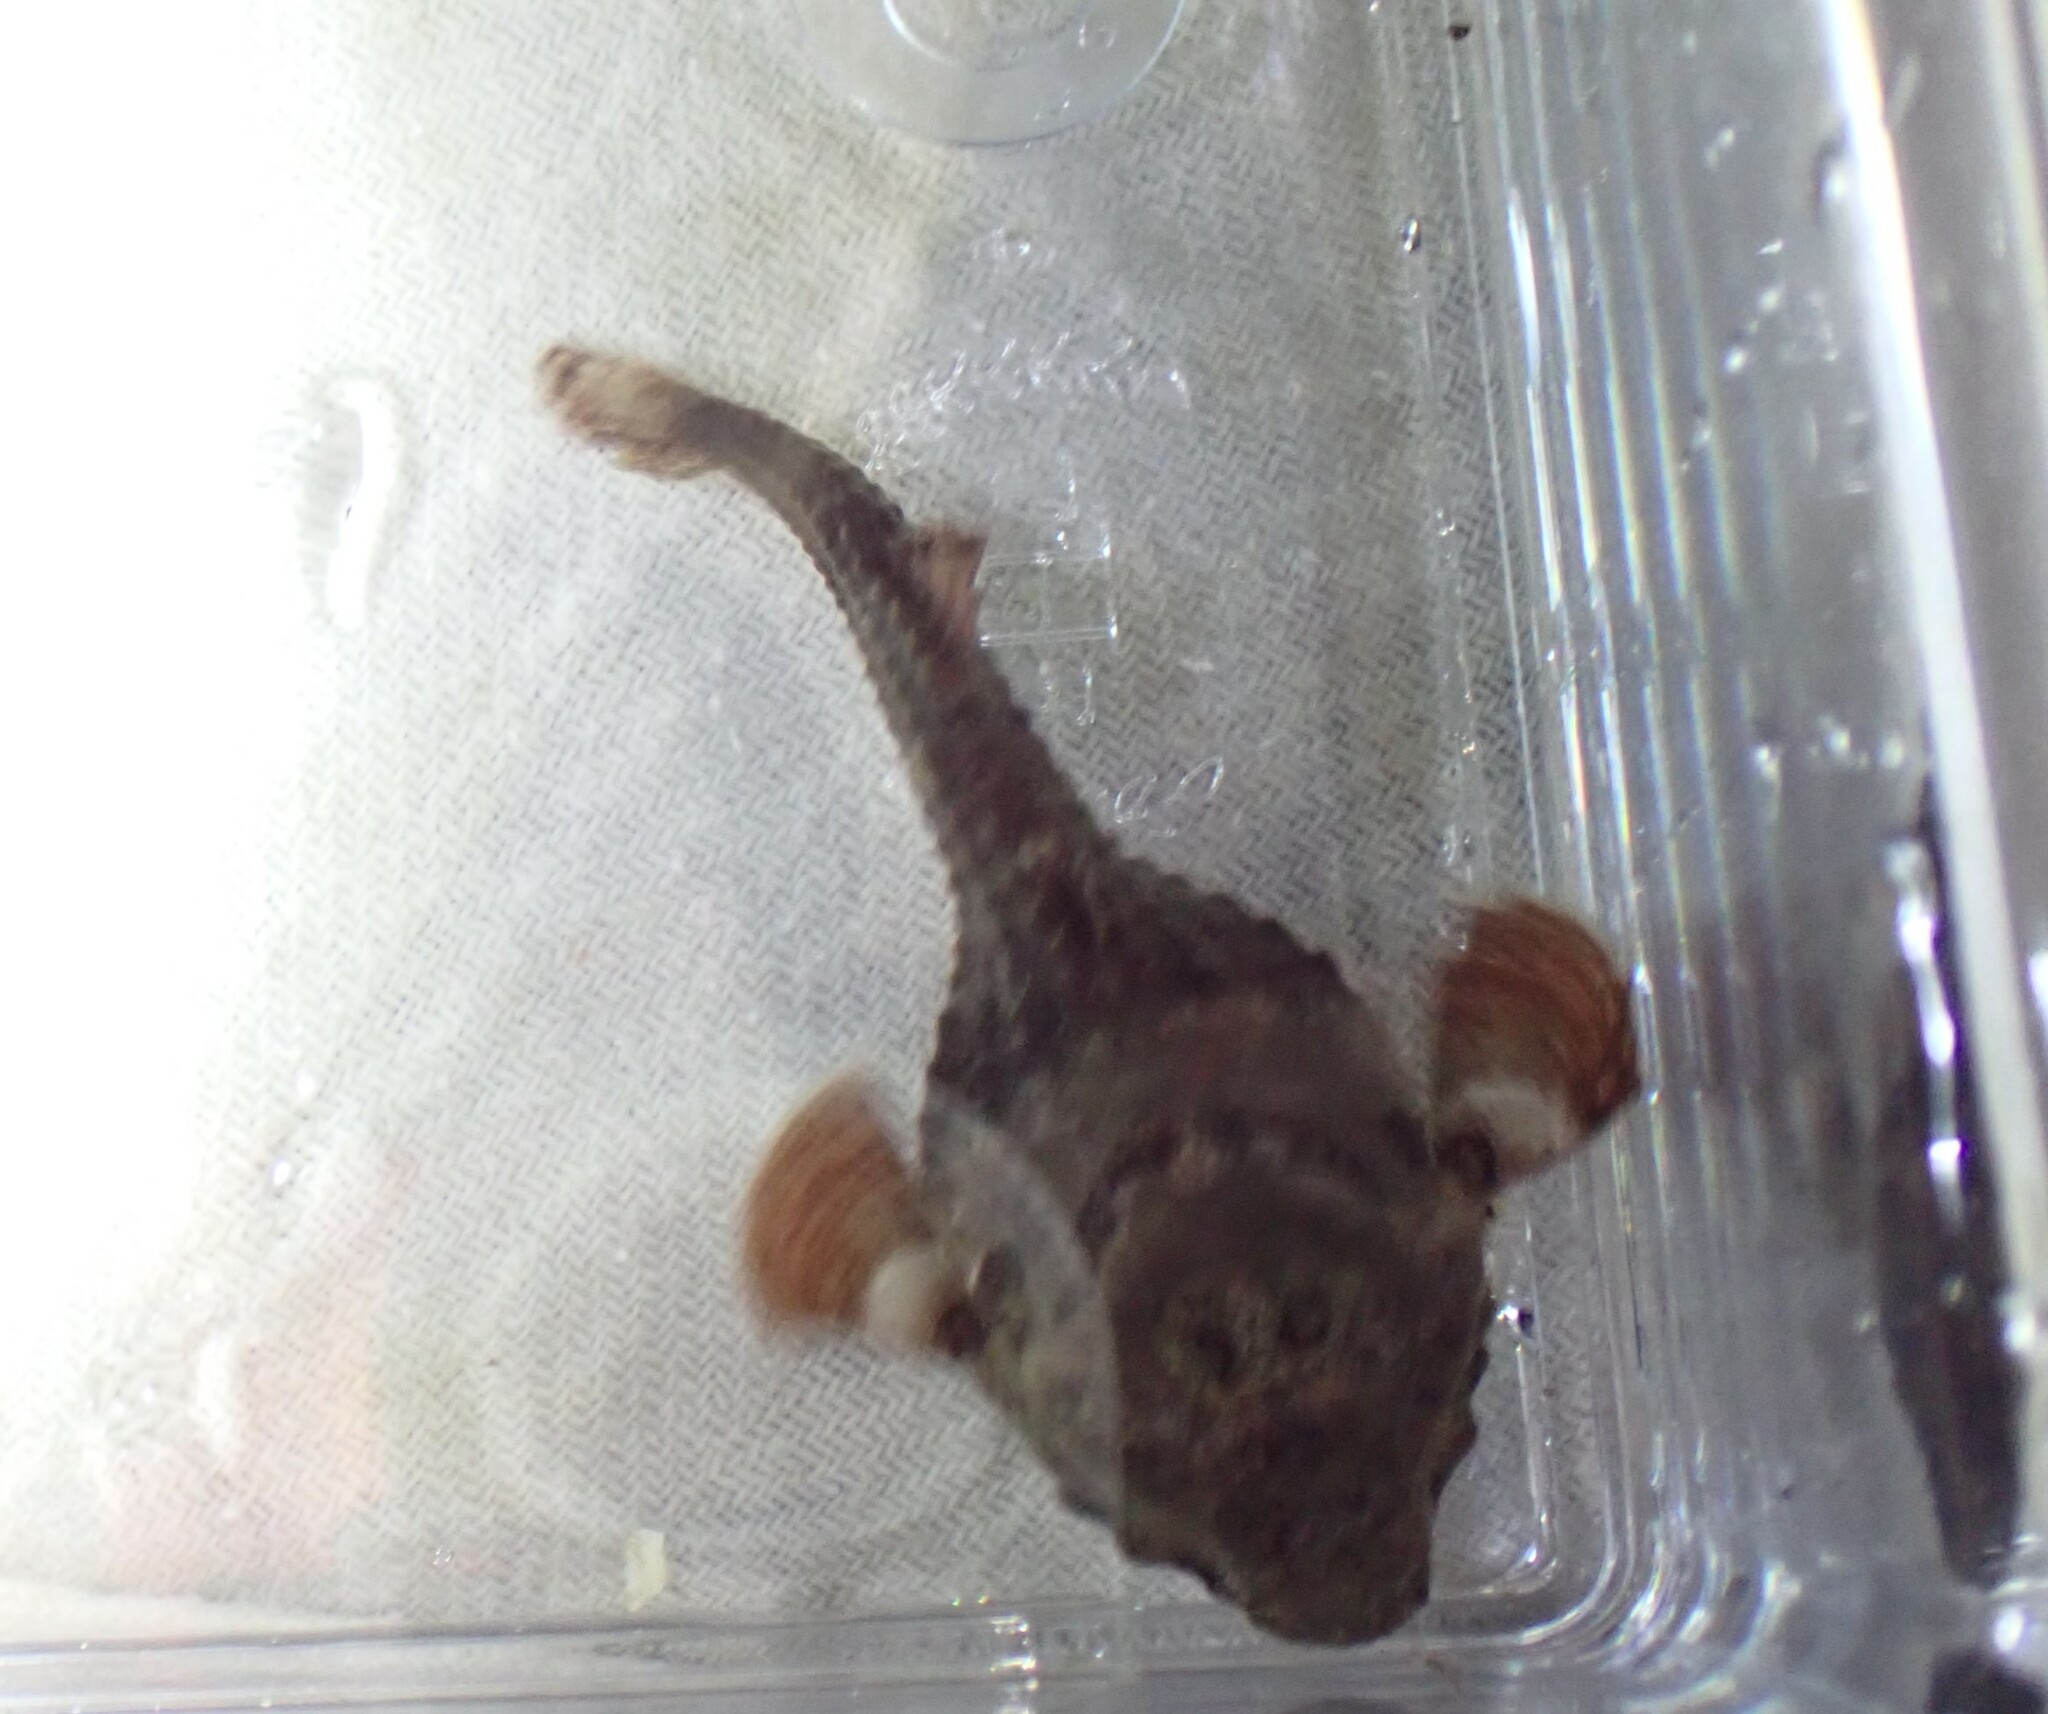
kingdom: Animalia
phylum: Chordata
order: Scorpaeniformes
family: Agonidae
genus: Bothragonus
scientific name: Bothragonus swanii
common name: Rockhead
